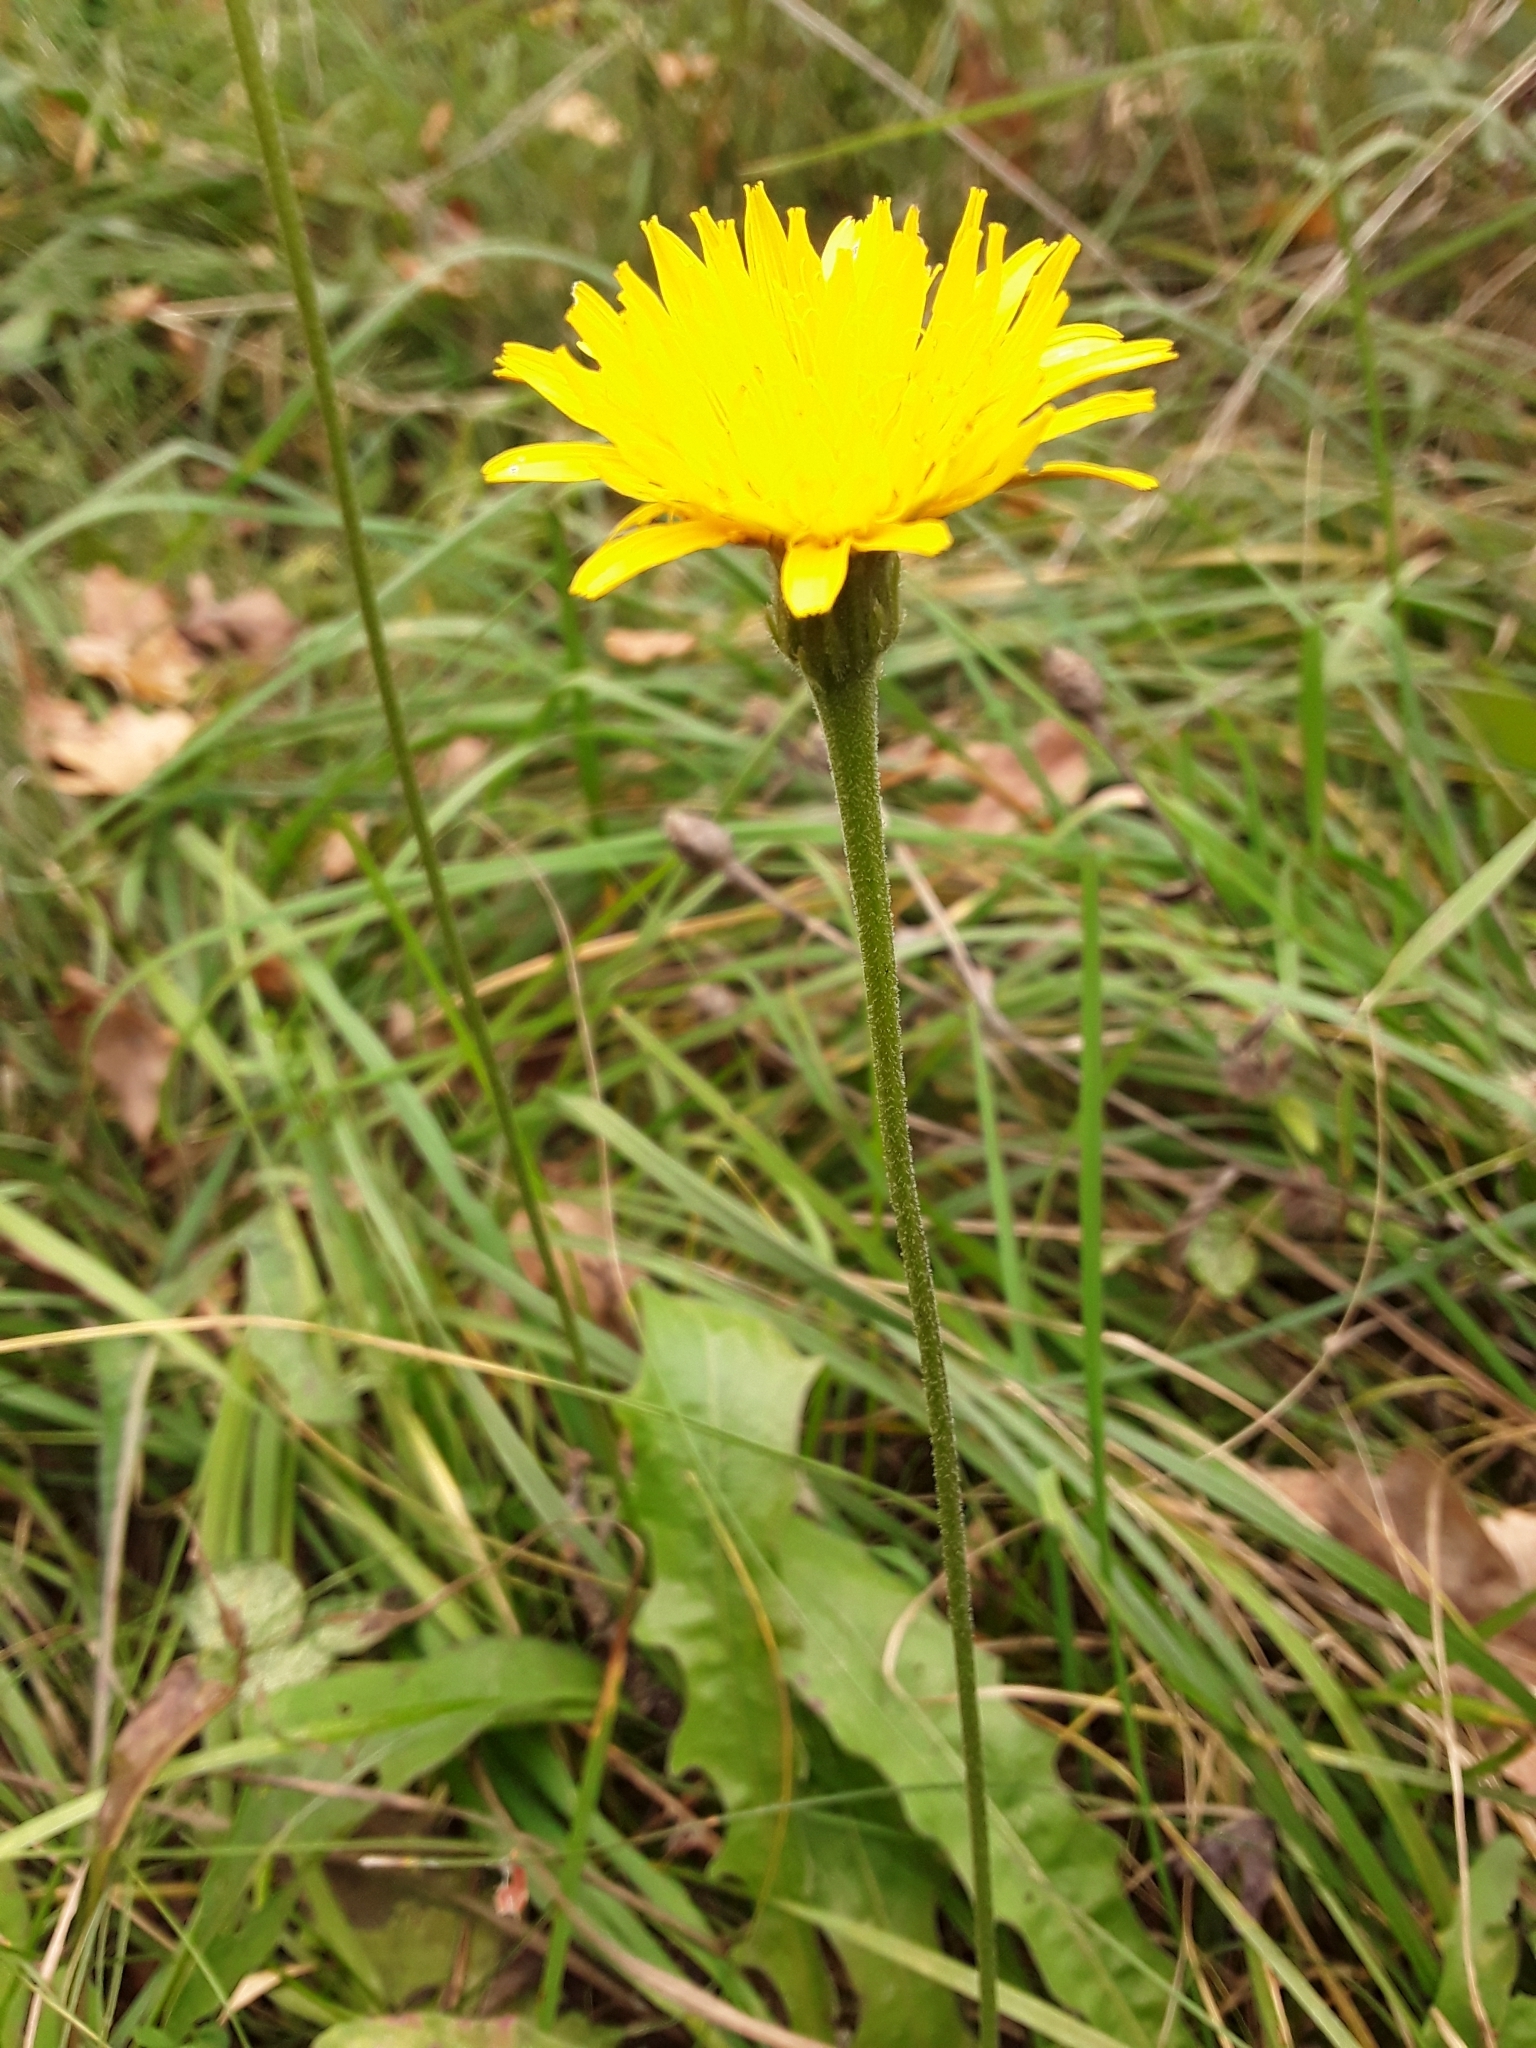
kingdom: Plantae
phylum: Tracheophyta
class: Magnoliopsida
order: Asterales
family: Asteraceae
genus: Leontodon
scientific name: Leontodon hispidus
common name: Rough hawkbit
